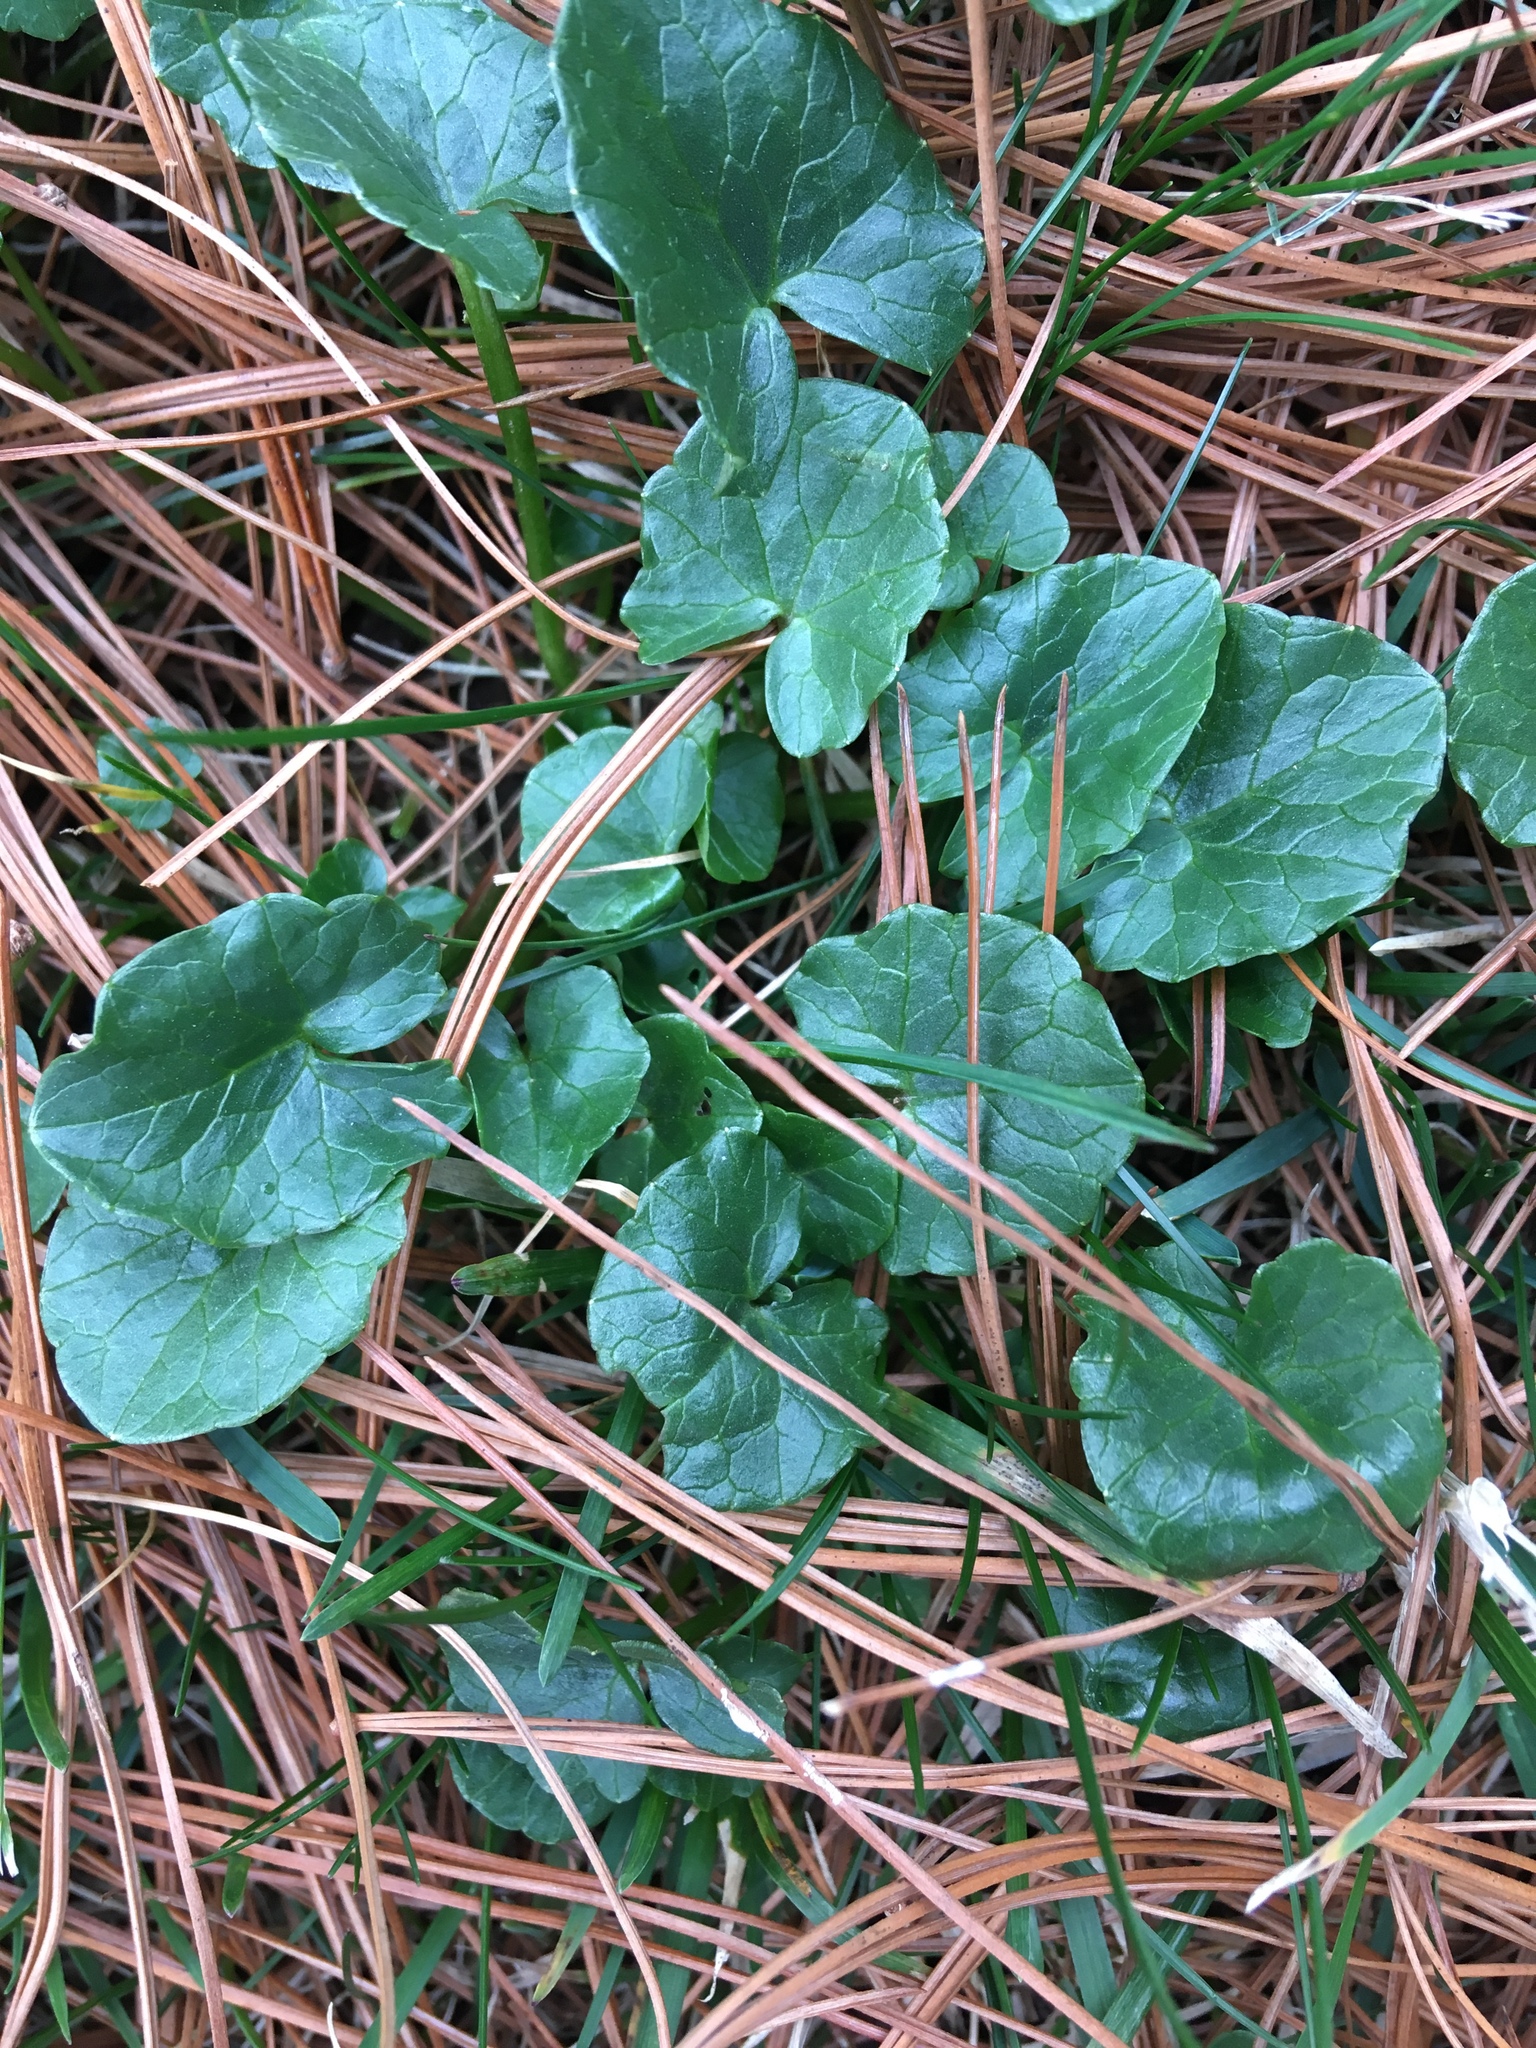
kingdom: Plantae
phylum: Tracheophyta
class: Magnoliopsida
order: Ranunculales
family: Ranunculaceae
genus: Ficaria
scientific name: Ficaria verna
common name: Lesser celandine
